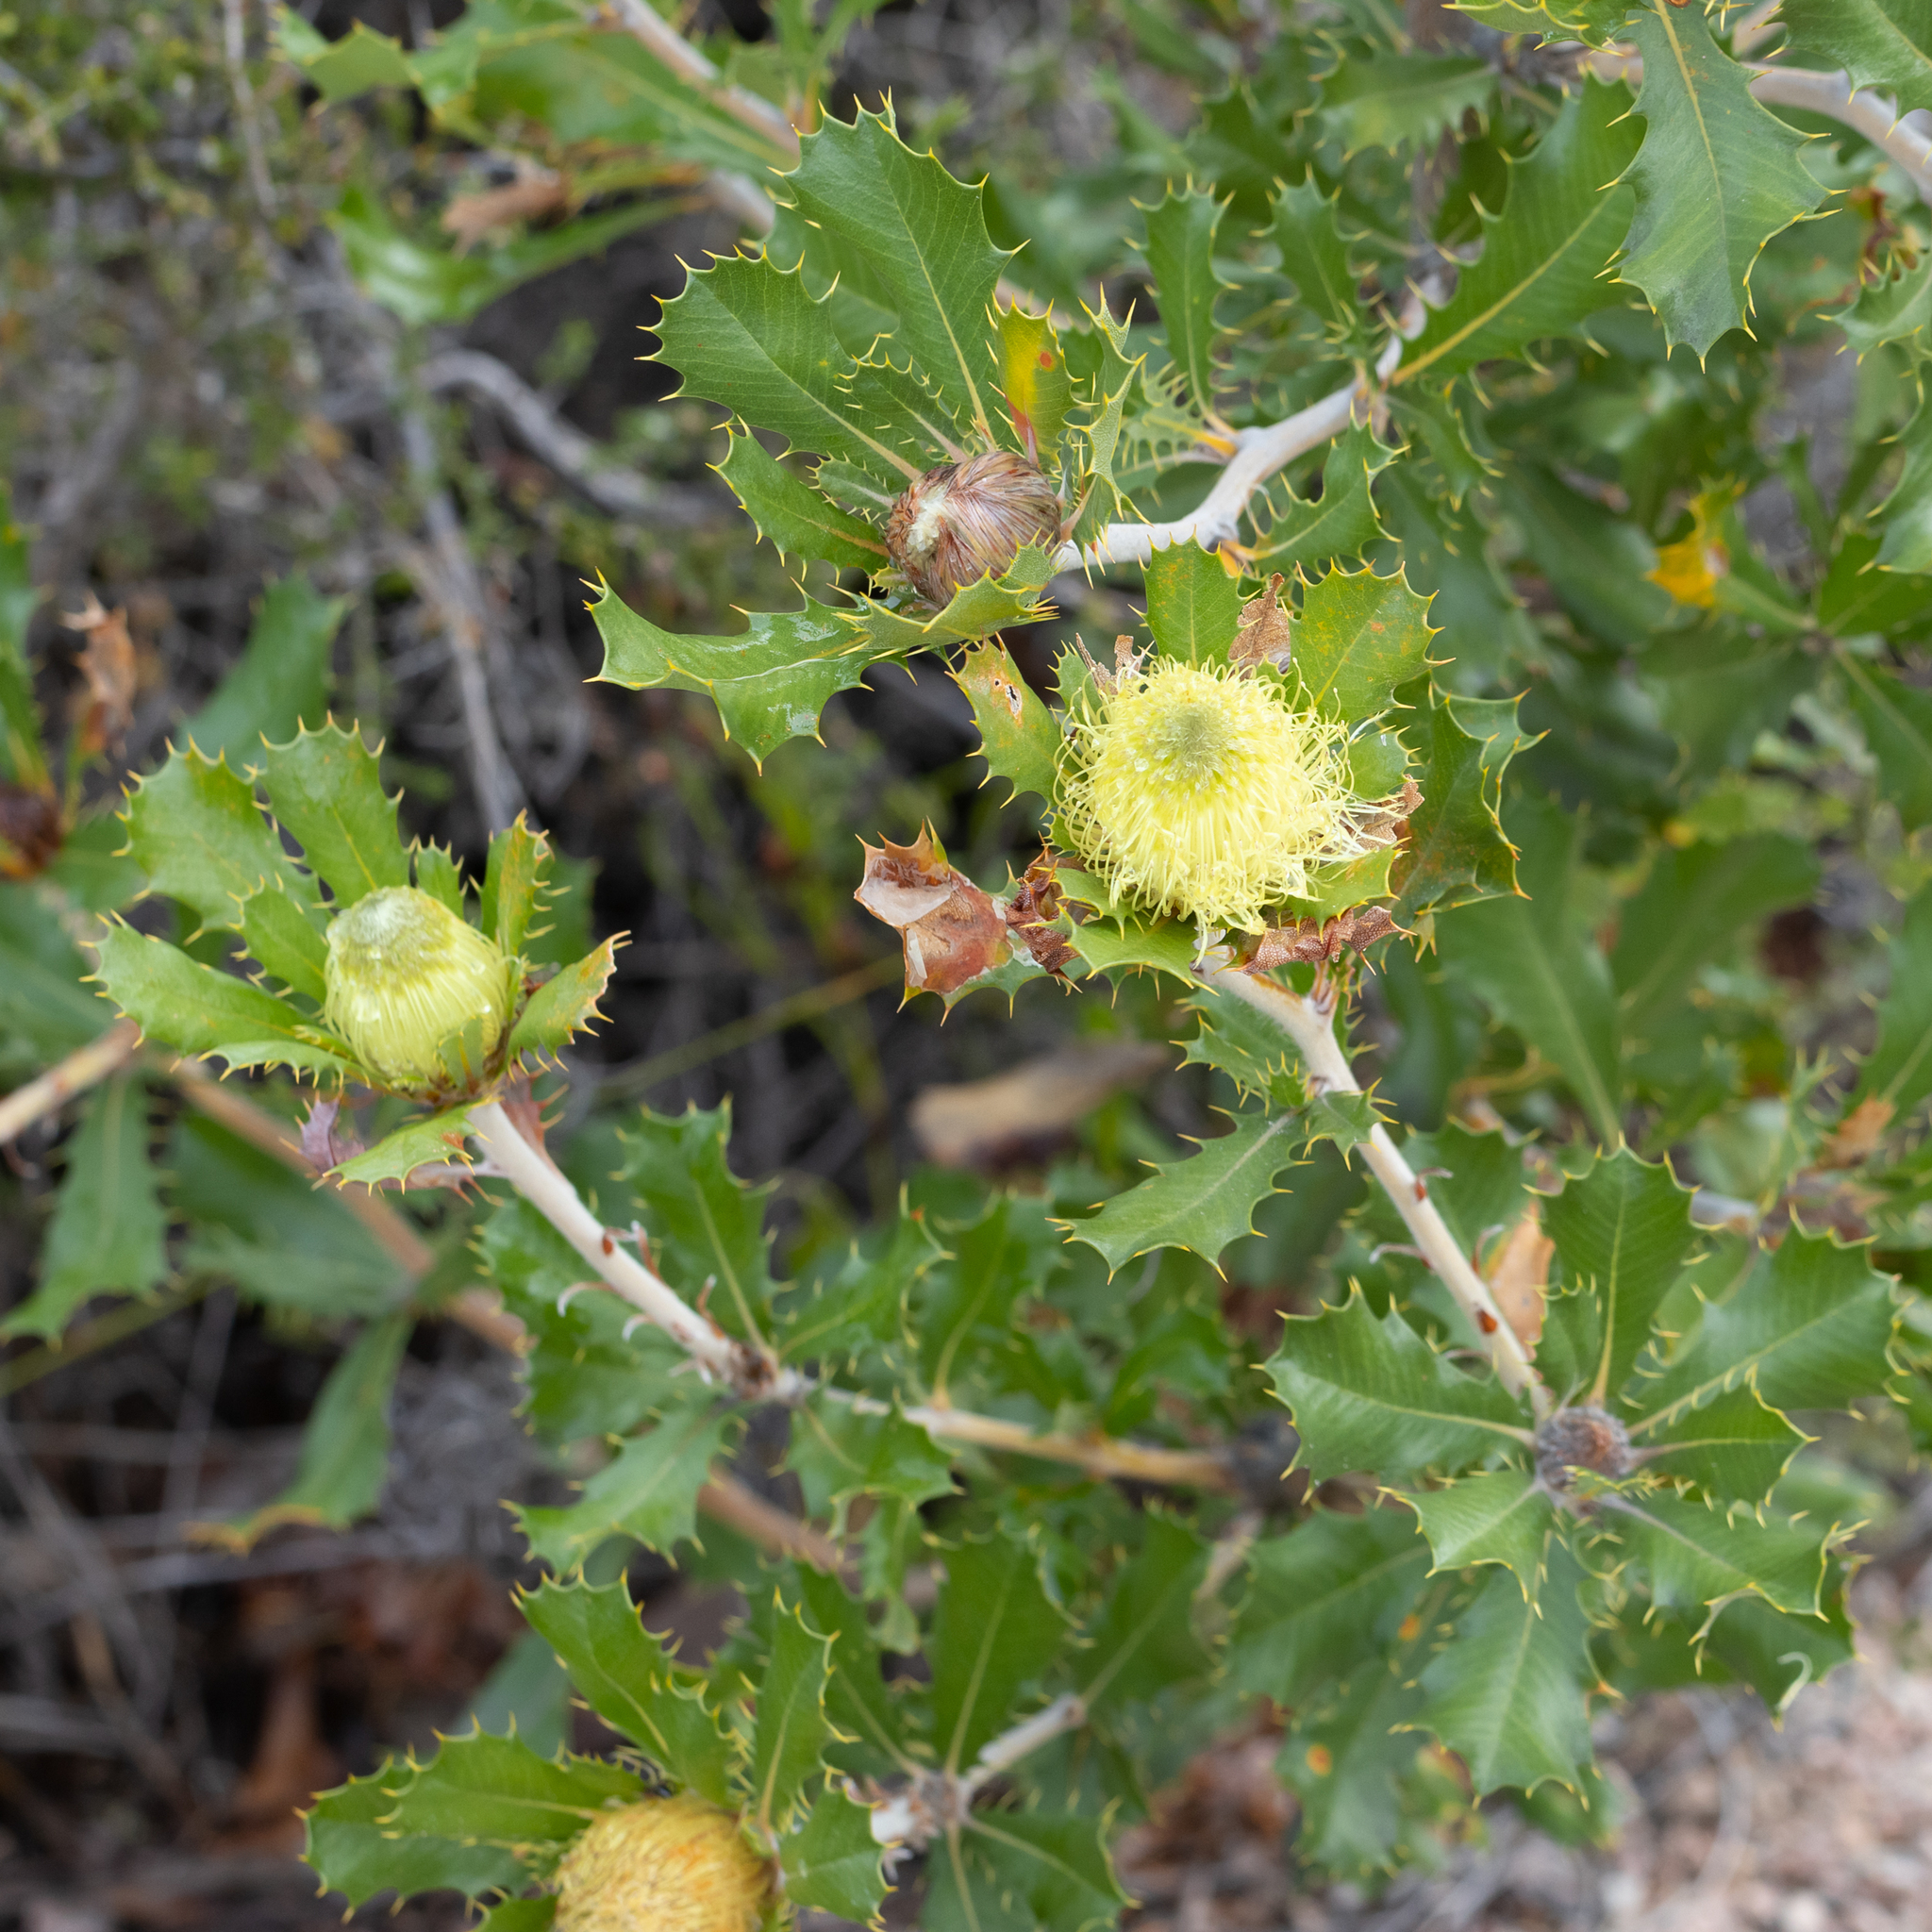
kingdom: Plantae
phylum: Tracheophyta
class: Magnoliopsida
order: Proteales
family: Proteaceae
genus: Banksia
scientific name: Banksia obovata
